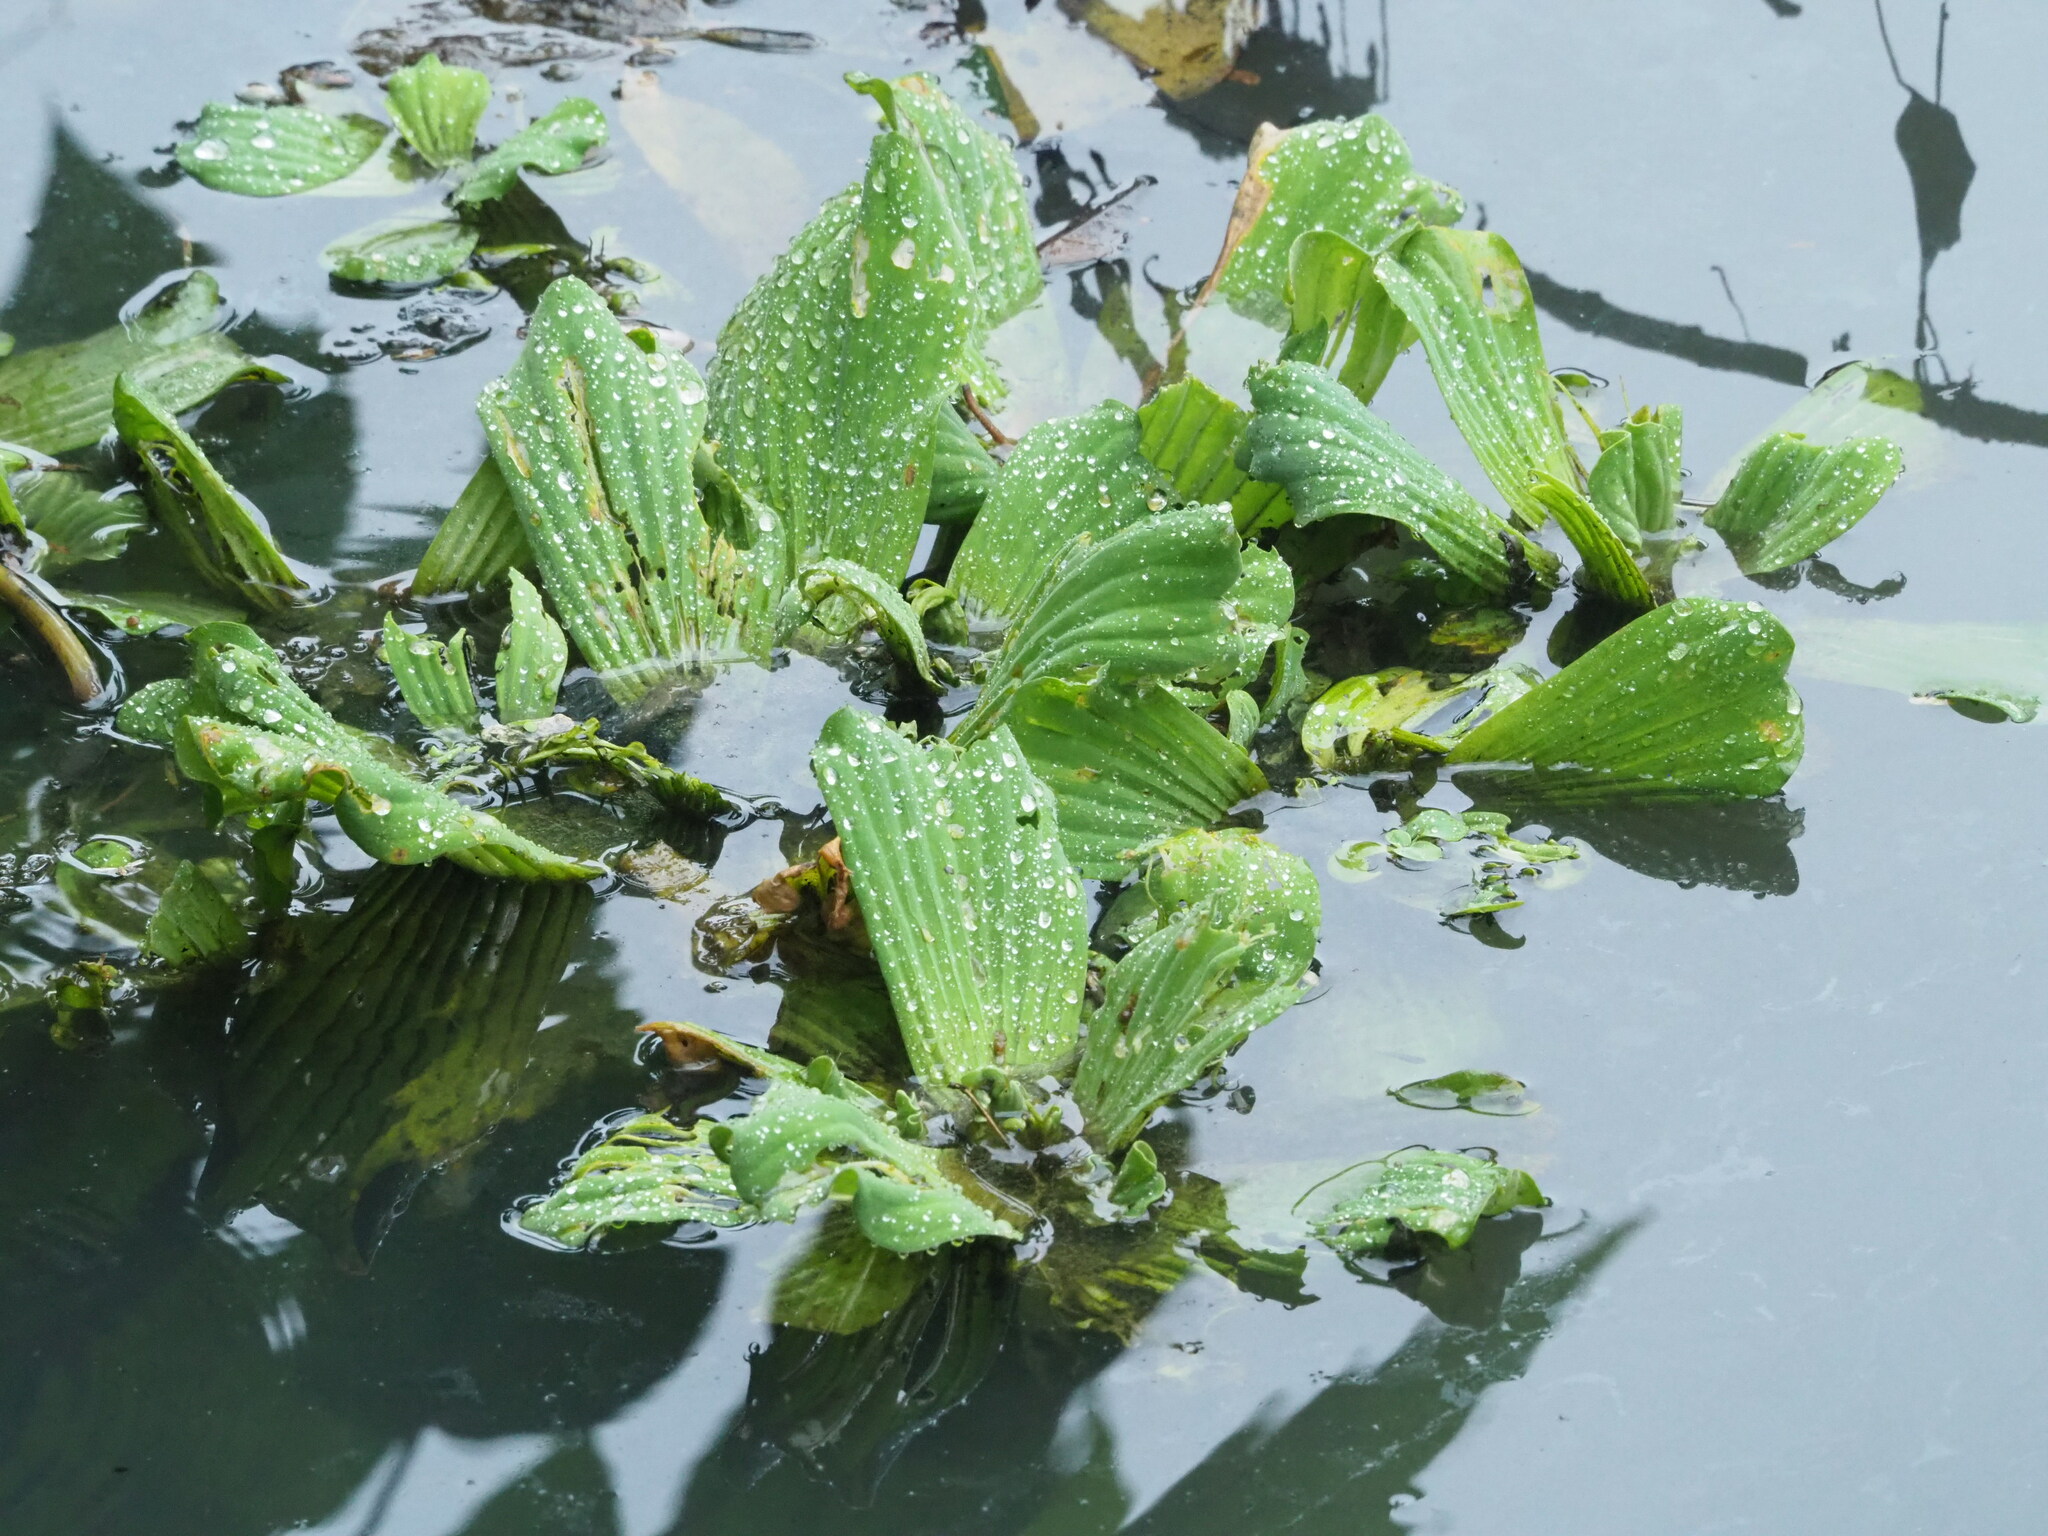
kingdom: Plantae
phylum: Tracheophyta
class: Liliopsida
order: Alismatales
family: Araceae
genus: Pistia
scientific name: Pistia stratiotes
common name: Water lettuce
